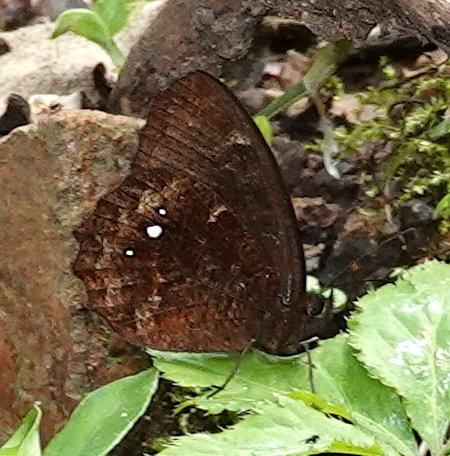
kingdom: Animalia
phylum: Arthropoda
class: Insecta
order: Lepidoptera
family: Nymphalidae
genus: Pedaliodes
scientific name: Pedaliodes phrasicla
